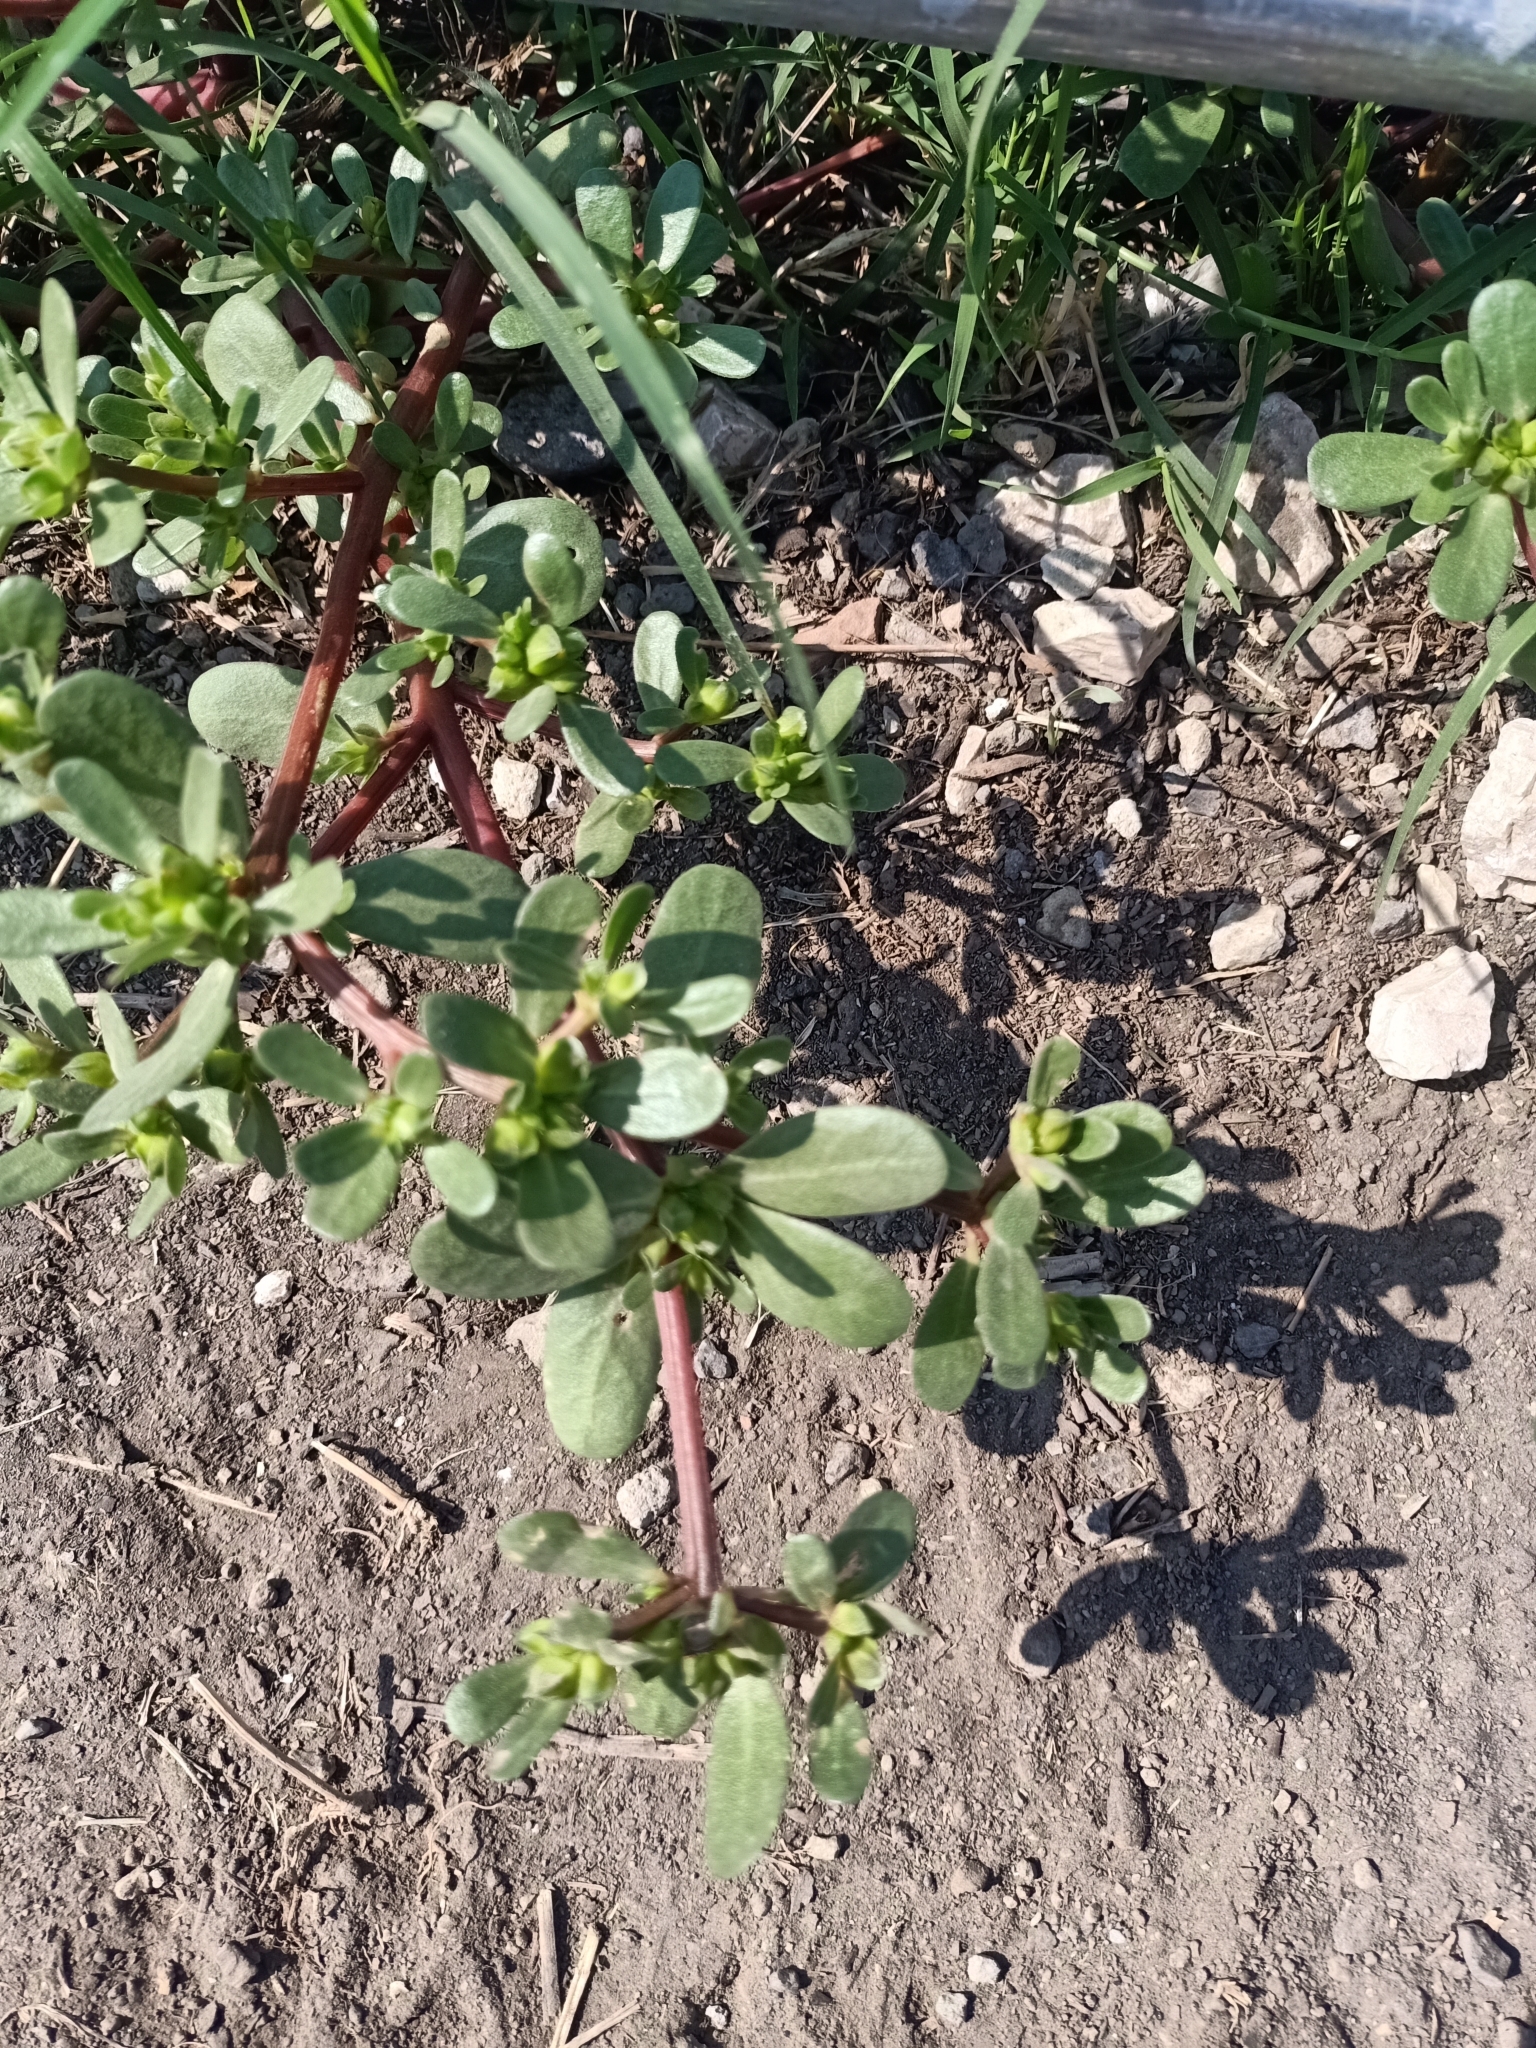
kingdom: Plantae
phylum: Tracheophyta
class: Magnoliopsida
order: Caryophyllales
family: Portulacaceae
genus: Portulaca
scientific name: Portulaca oleracea
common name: Common purslane
